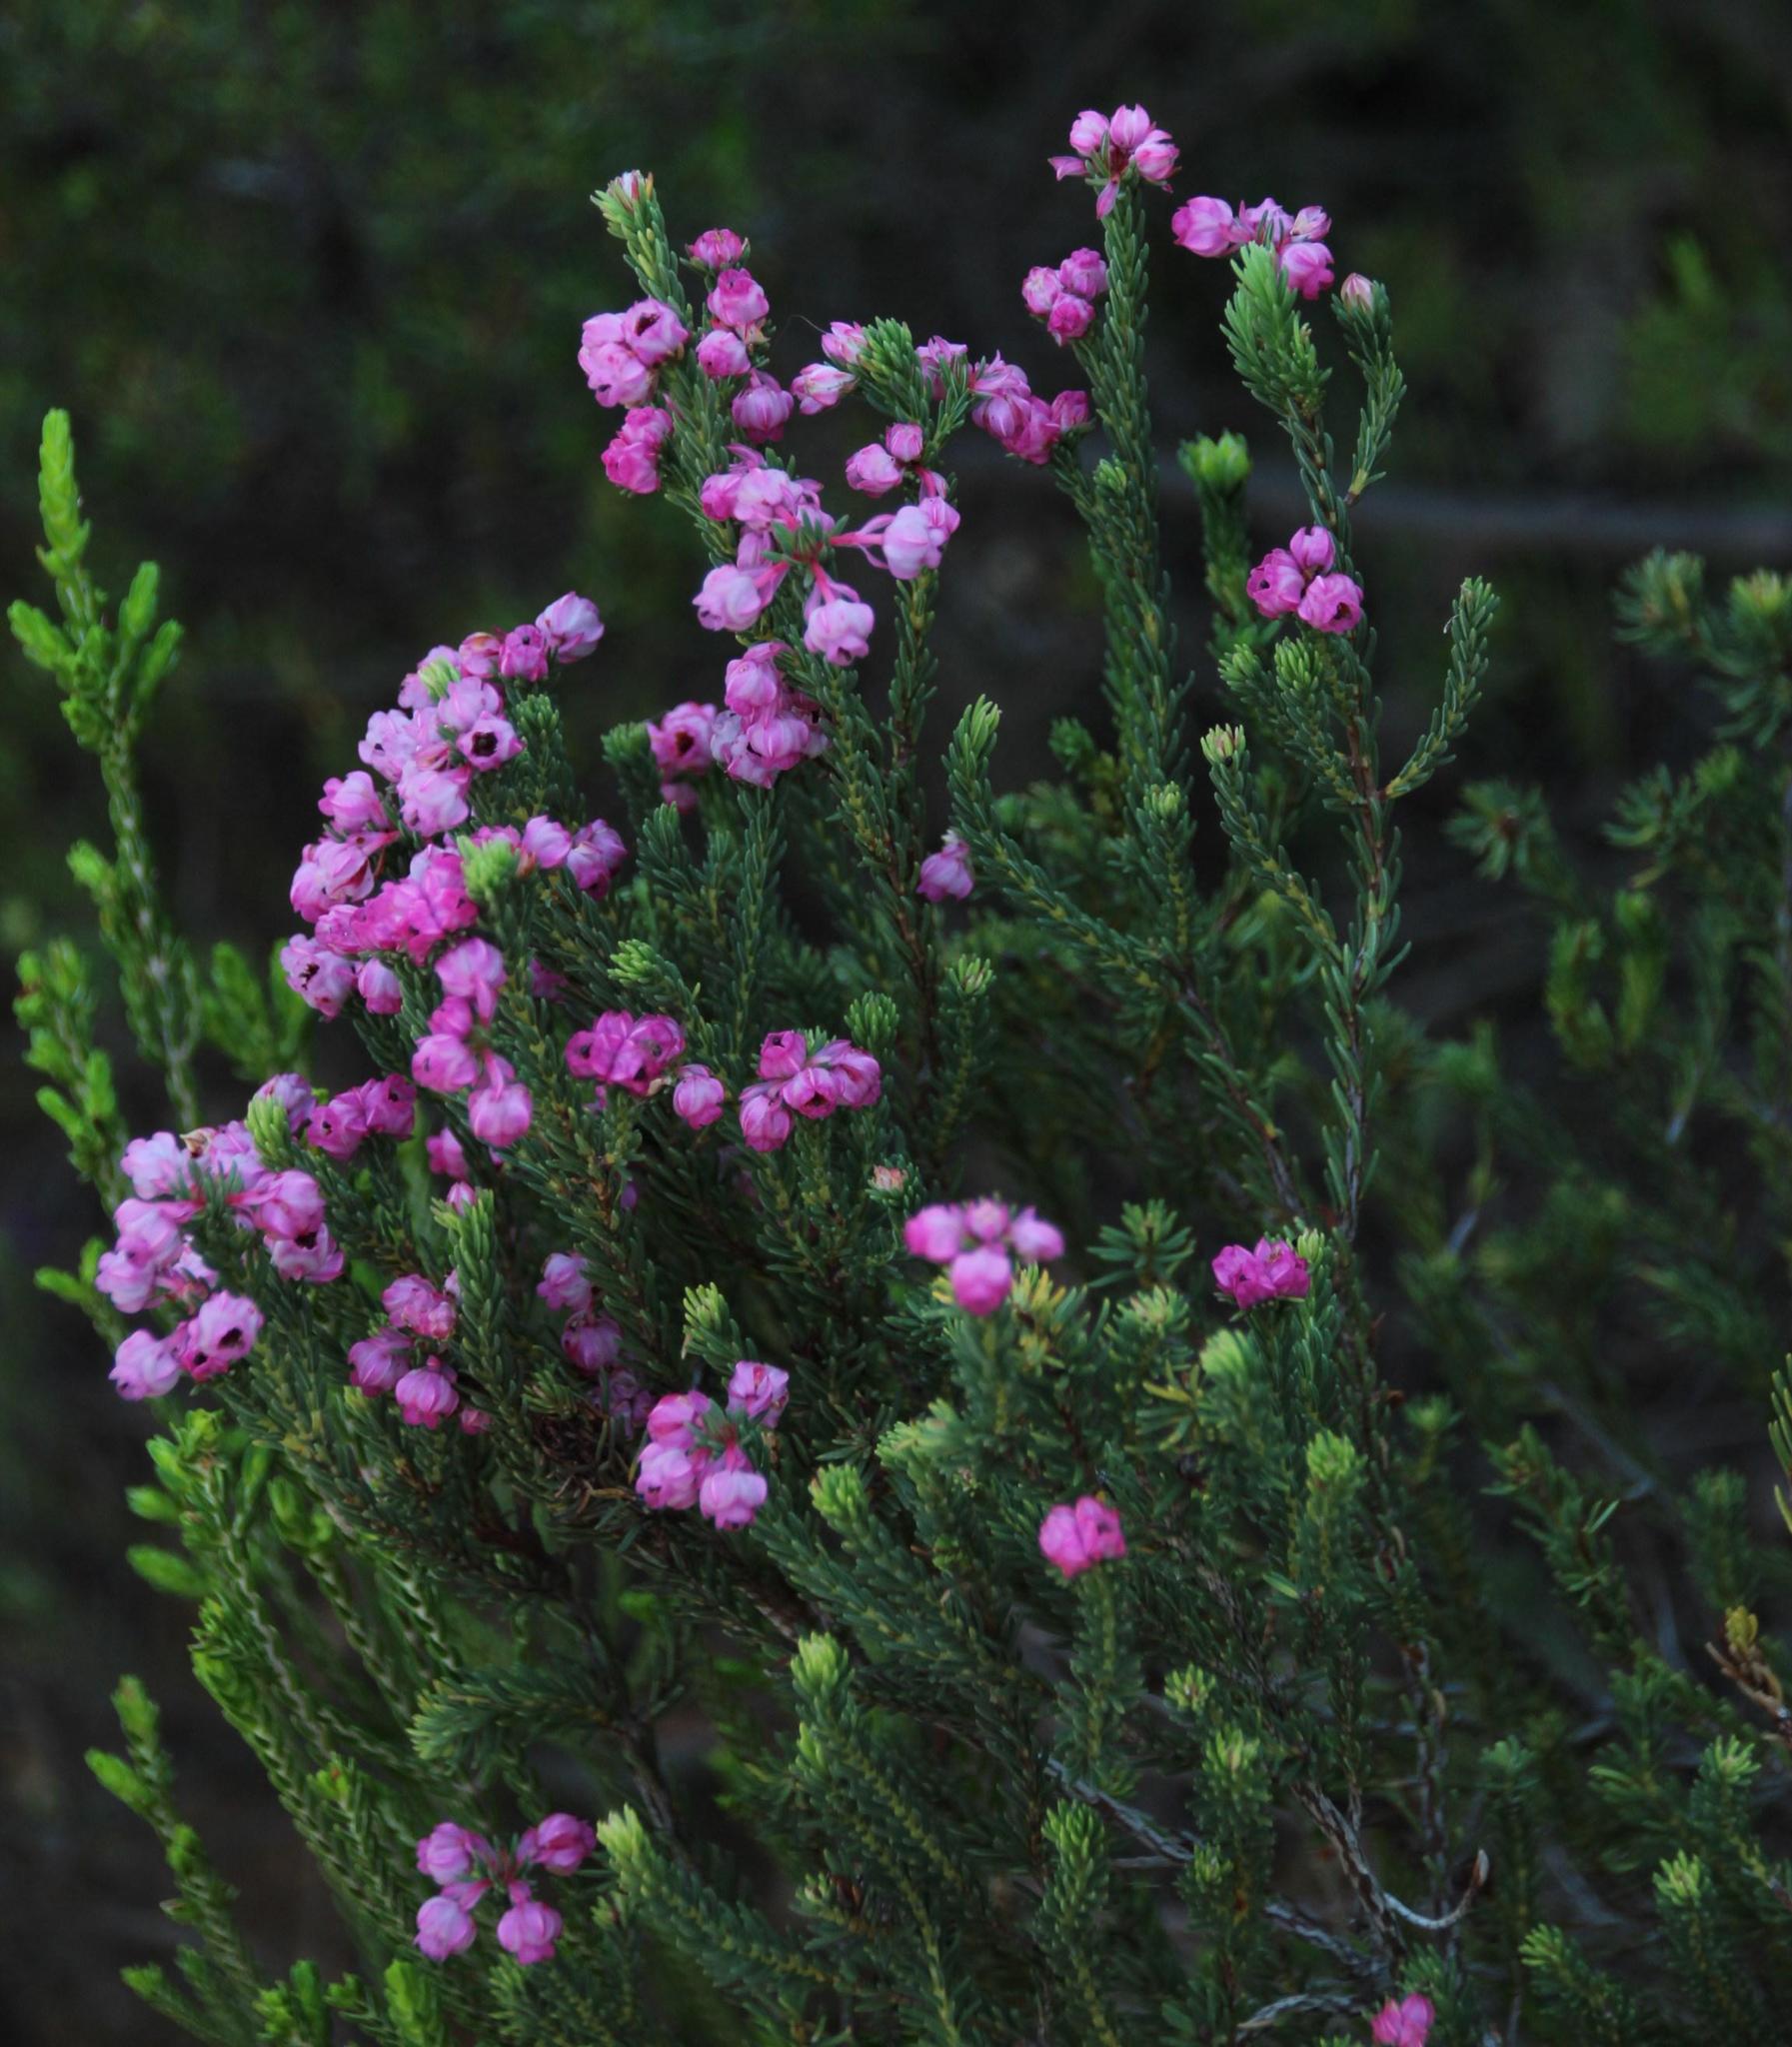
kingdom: Plantae
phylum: Tracheophyta
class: Magnoliopsida
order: Ericales
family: Ericaceae
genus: Erica
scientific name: Erica baccans
